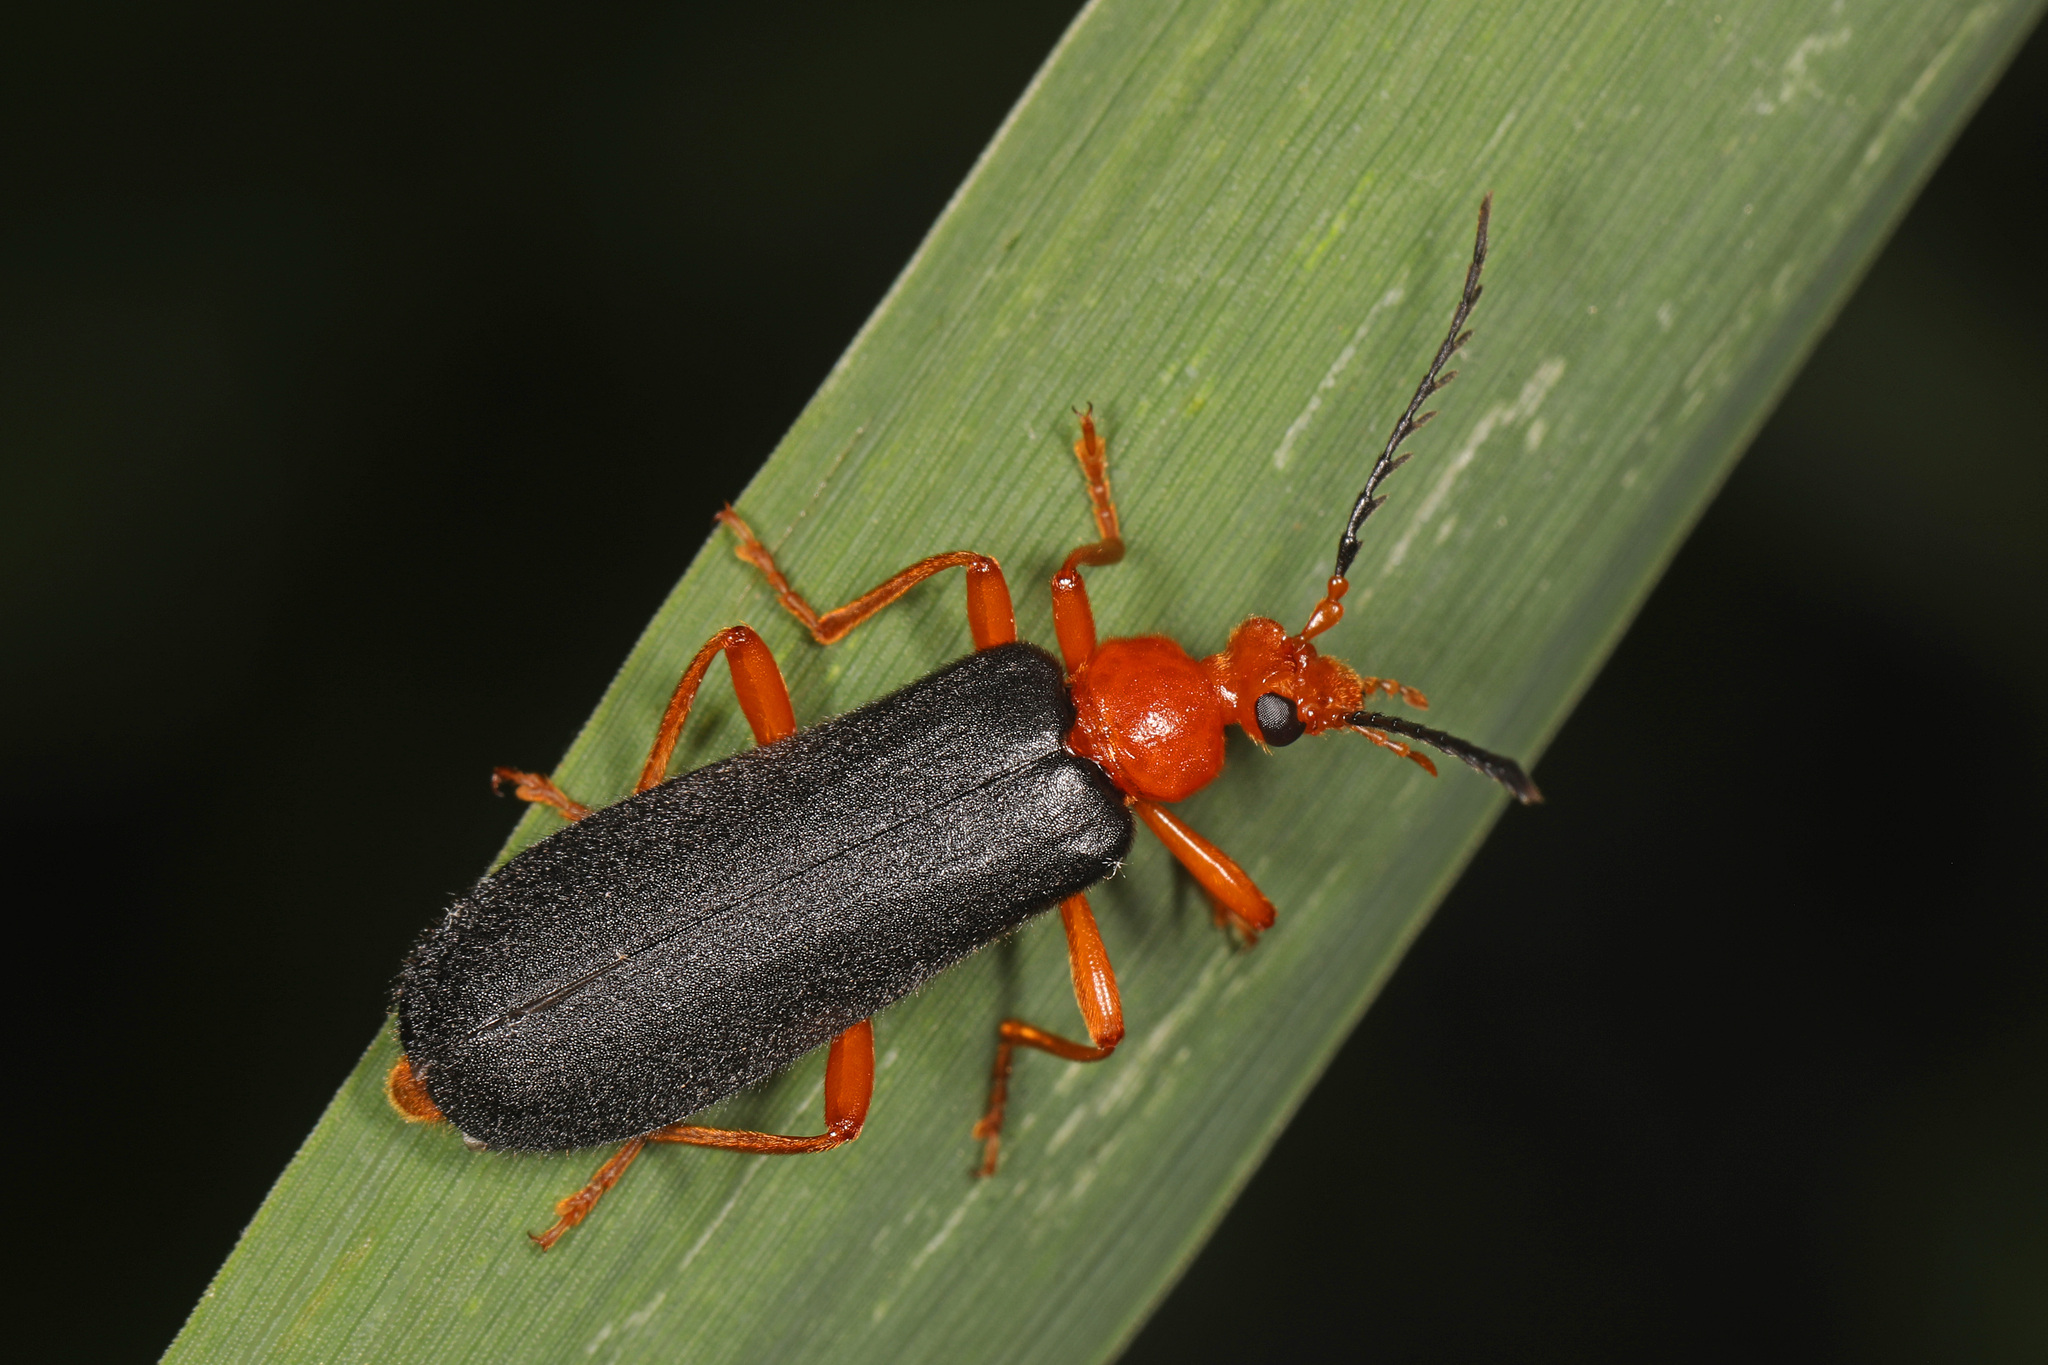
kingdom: Animalia
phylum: Arthropoda
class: Insecta
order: Coleoptera
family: Pyrochroidae
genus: Neopyrochroa
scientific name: Neopyrochroa flabellata
